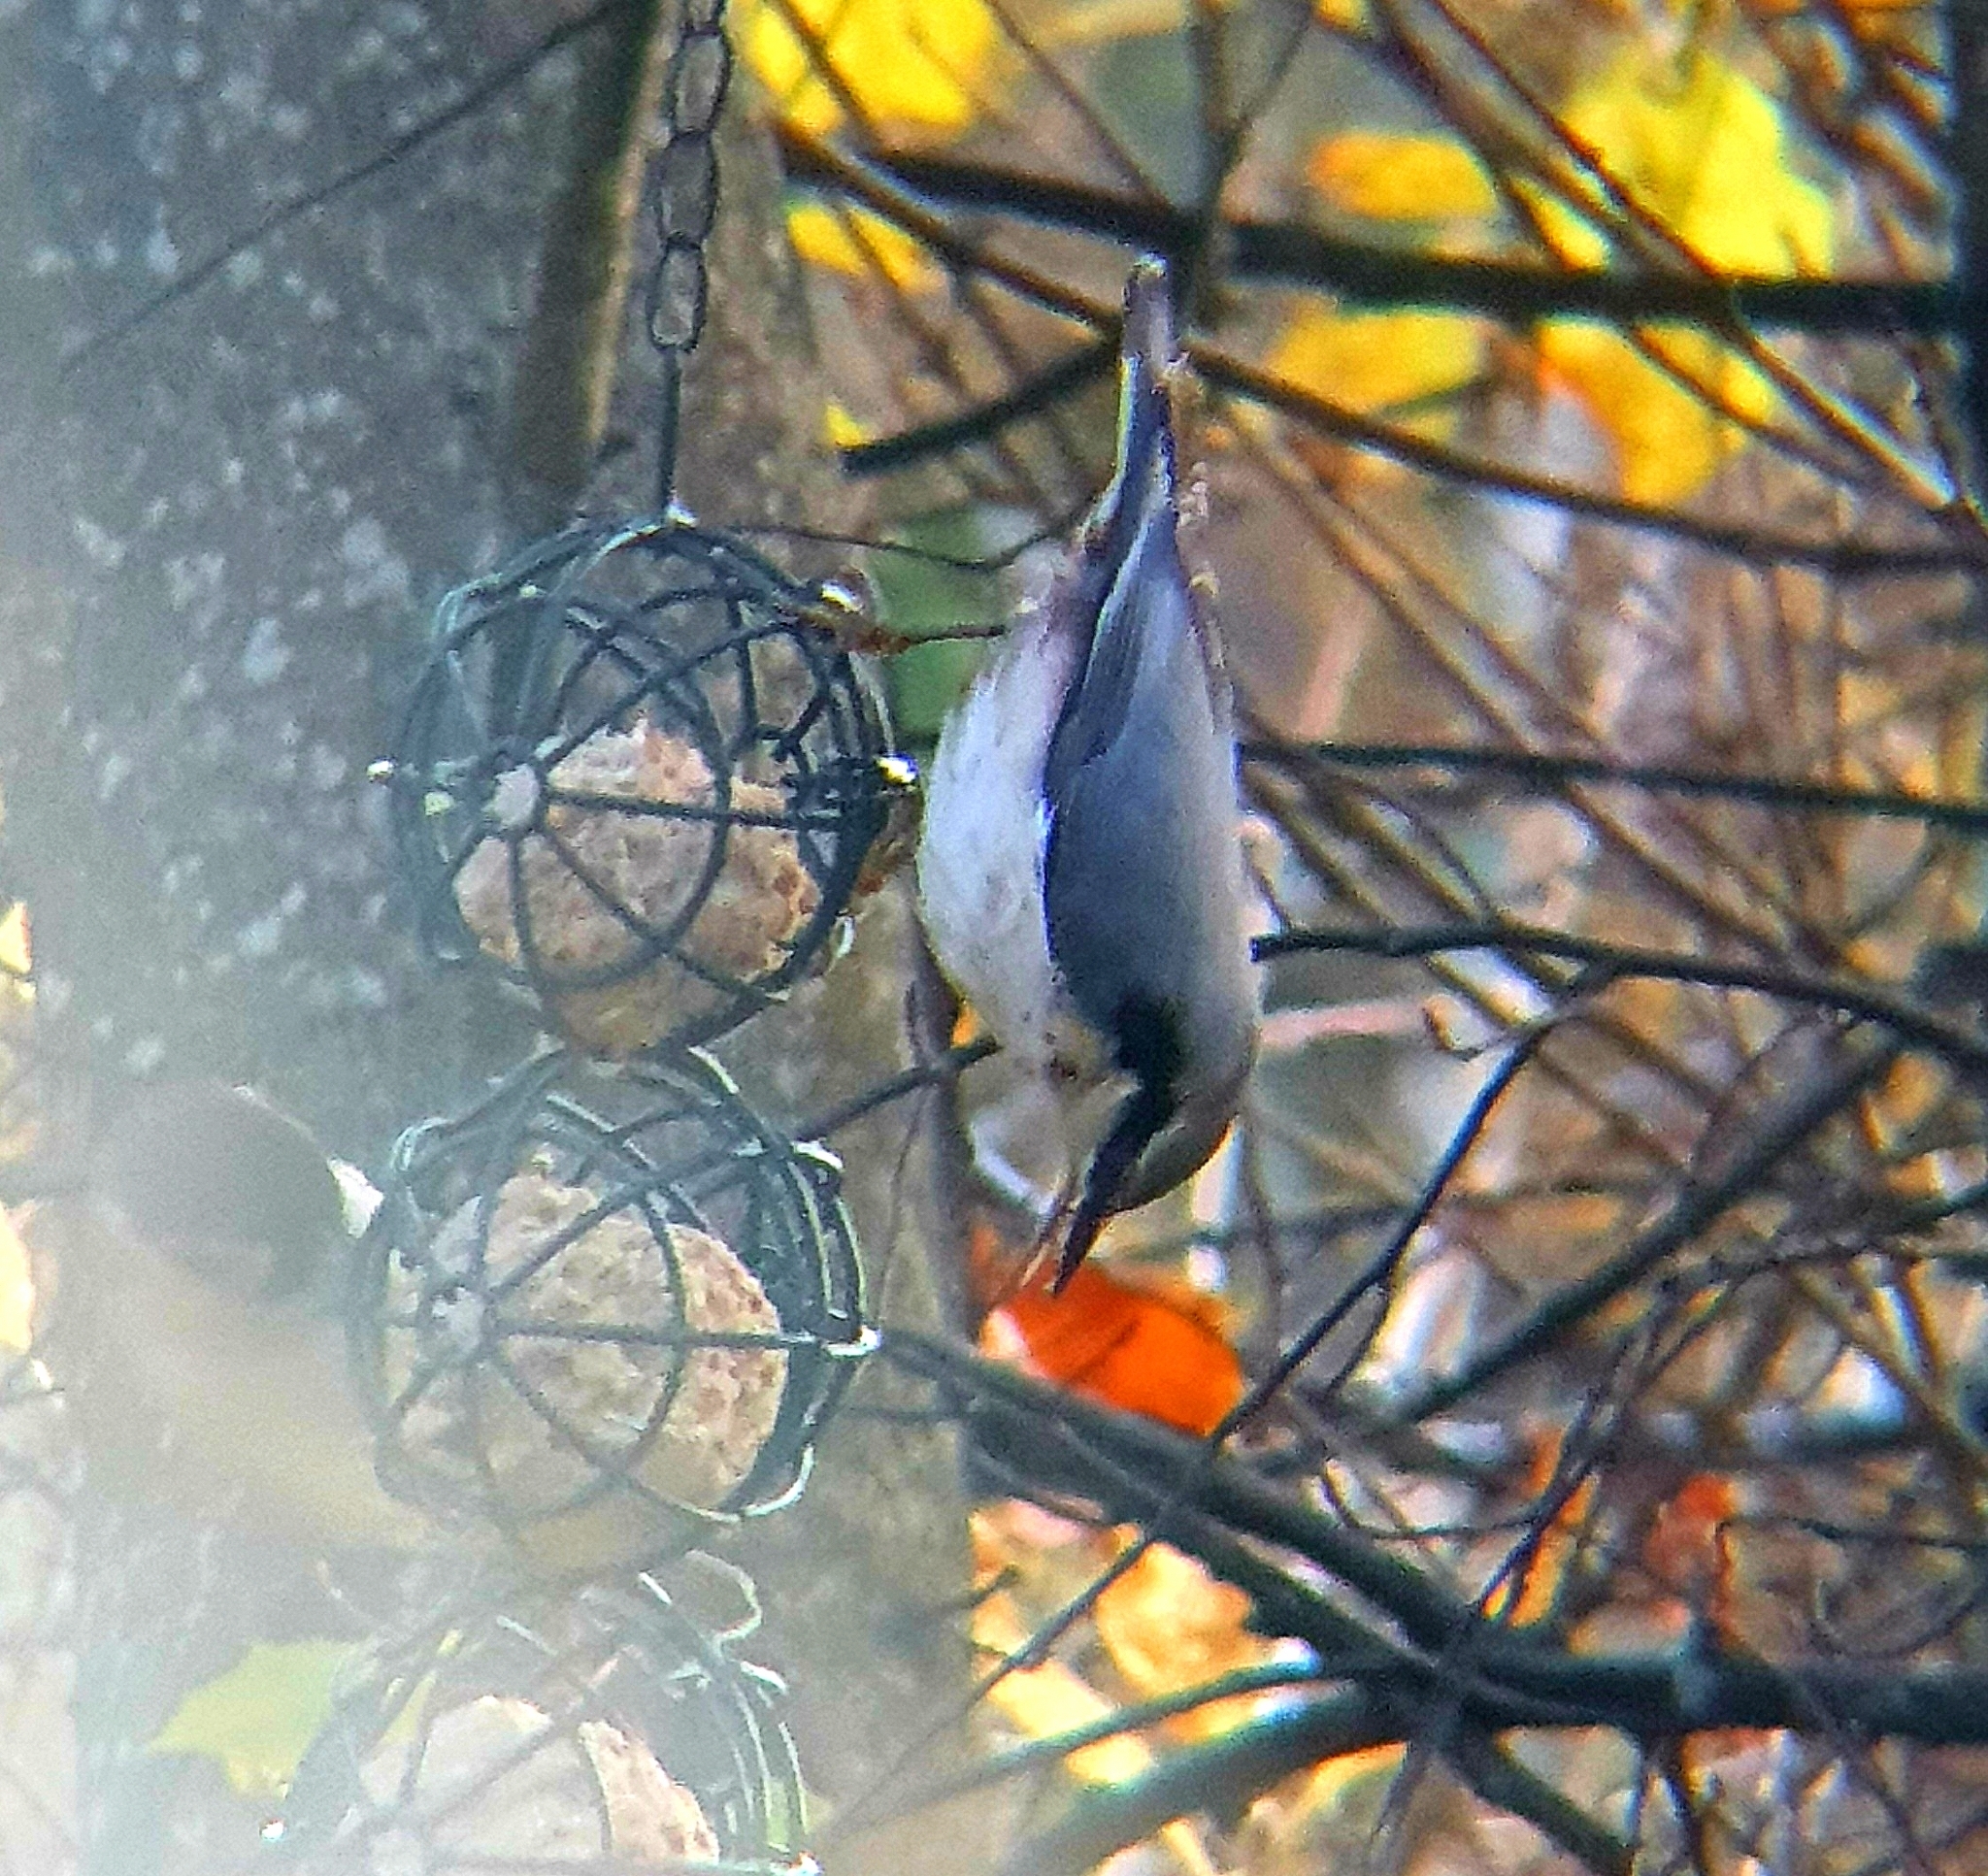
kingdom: Animalia
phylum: Chordata
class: Aves
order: Passeriformes
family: Sittidae
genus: Sitta
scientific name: Sitta europaea
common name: Eurasian nuthatch
